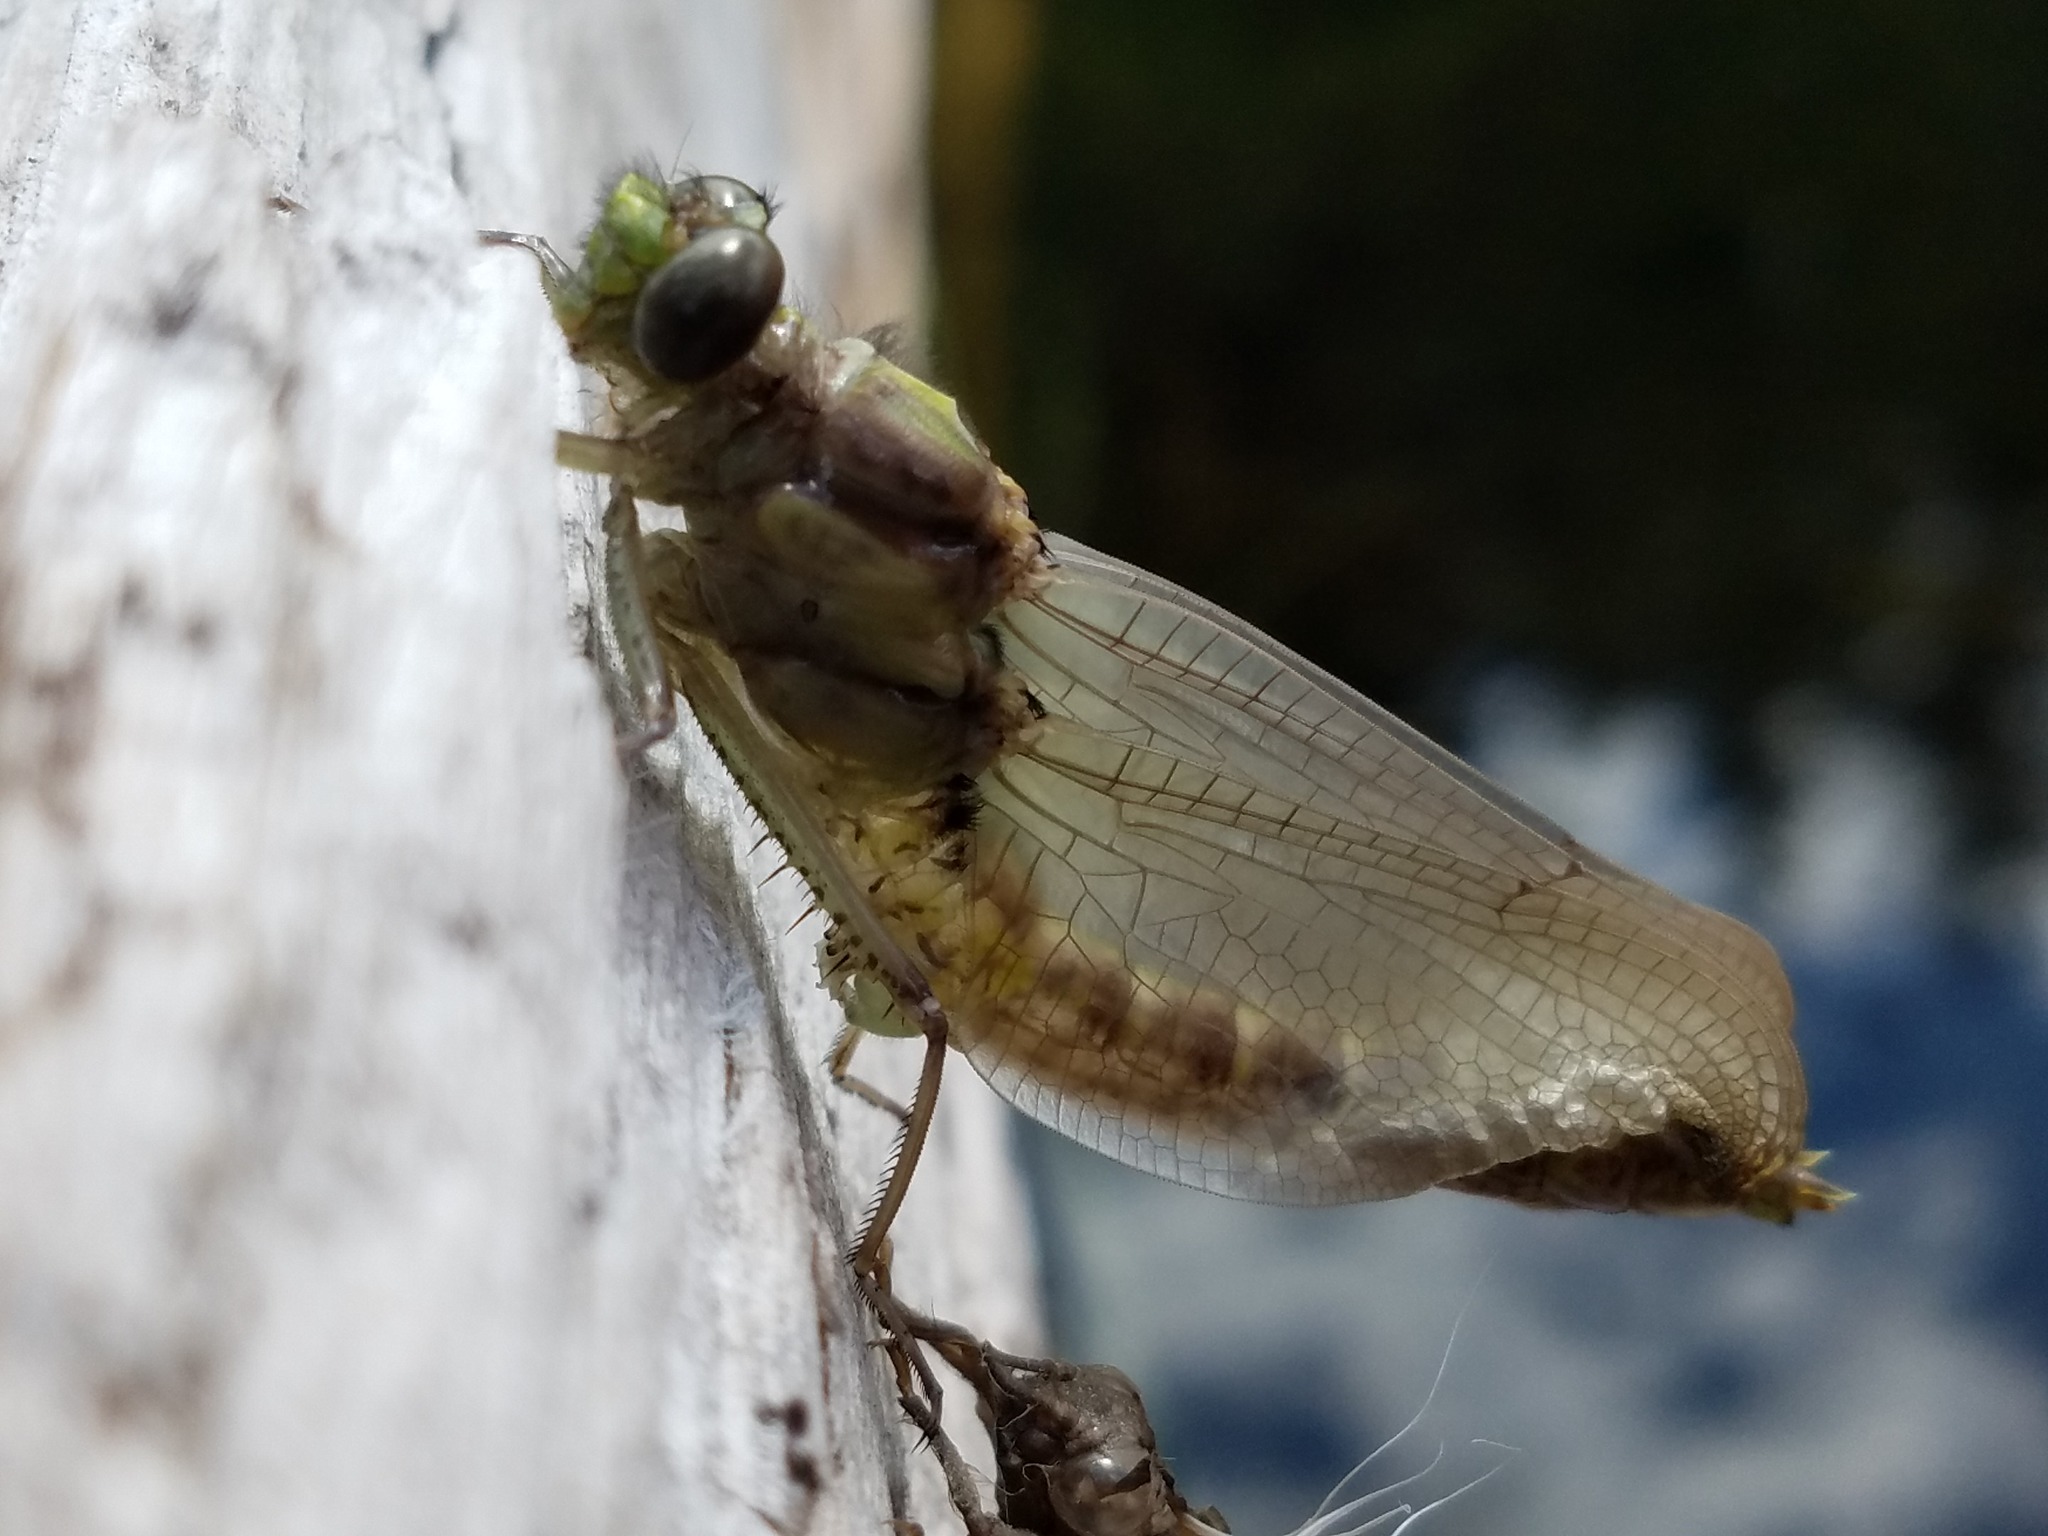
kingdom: Animalia
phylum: Arthropoda
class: Insecta
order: Odonata
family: Gomphidae
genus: Dromogomphus
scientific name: Dromogomphus spinosus
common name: Black-shouldered spinyleg
